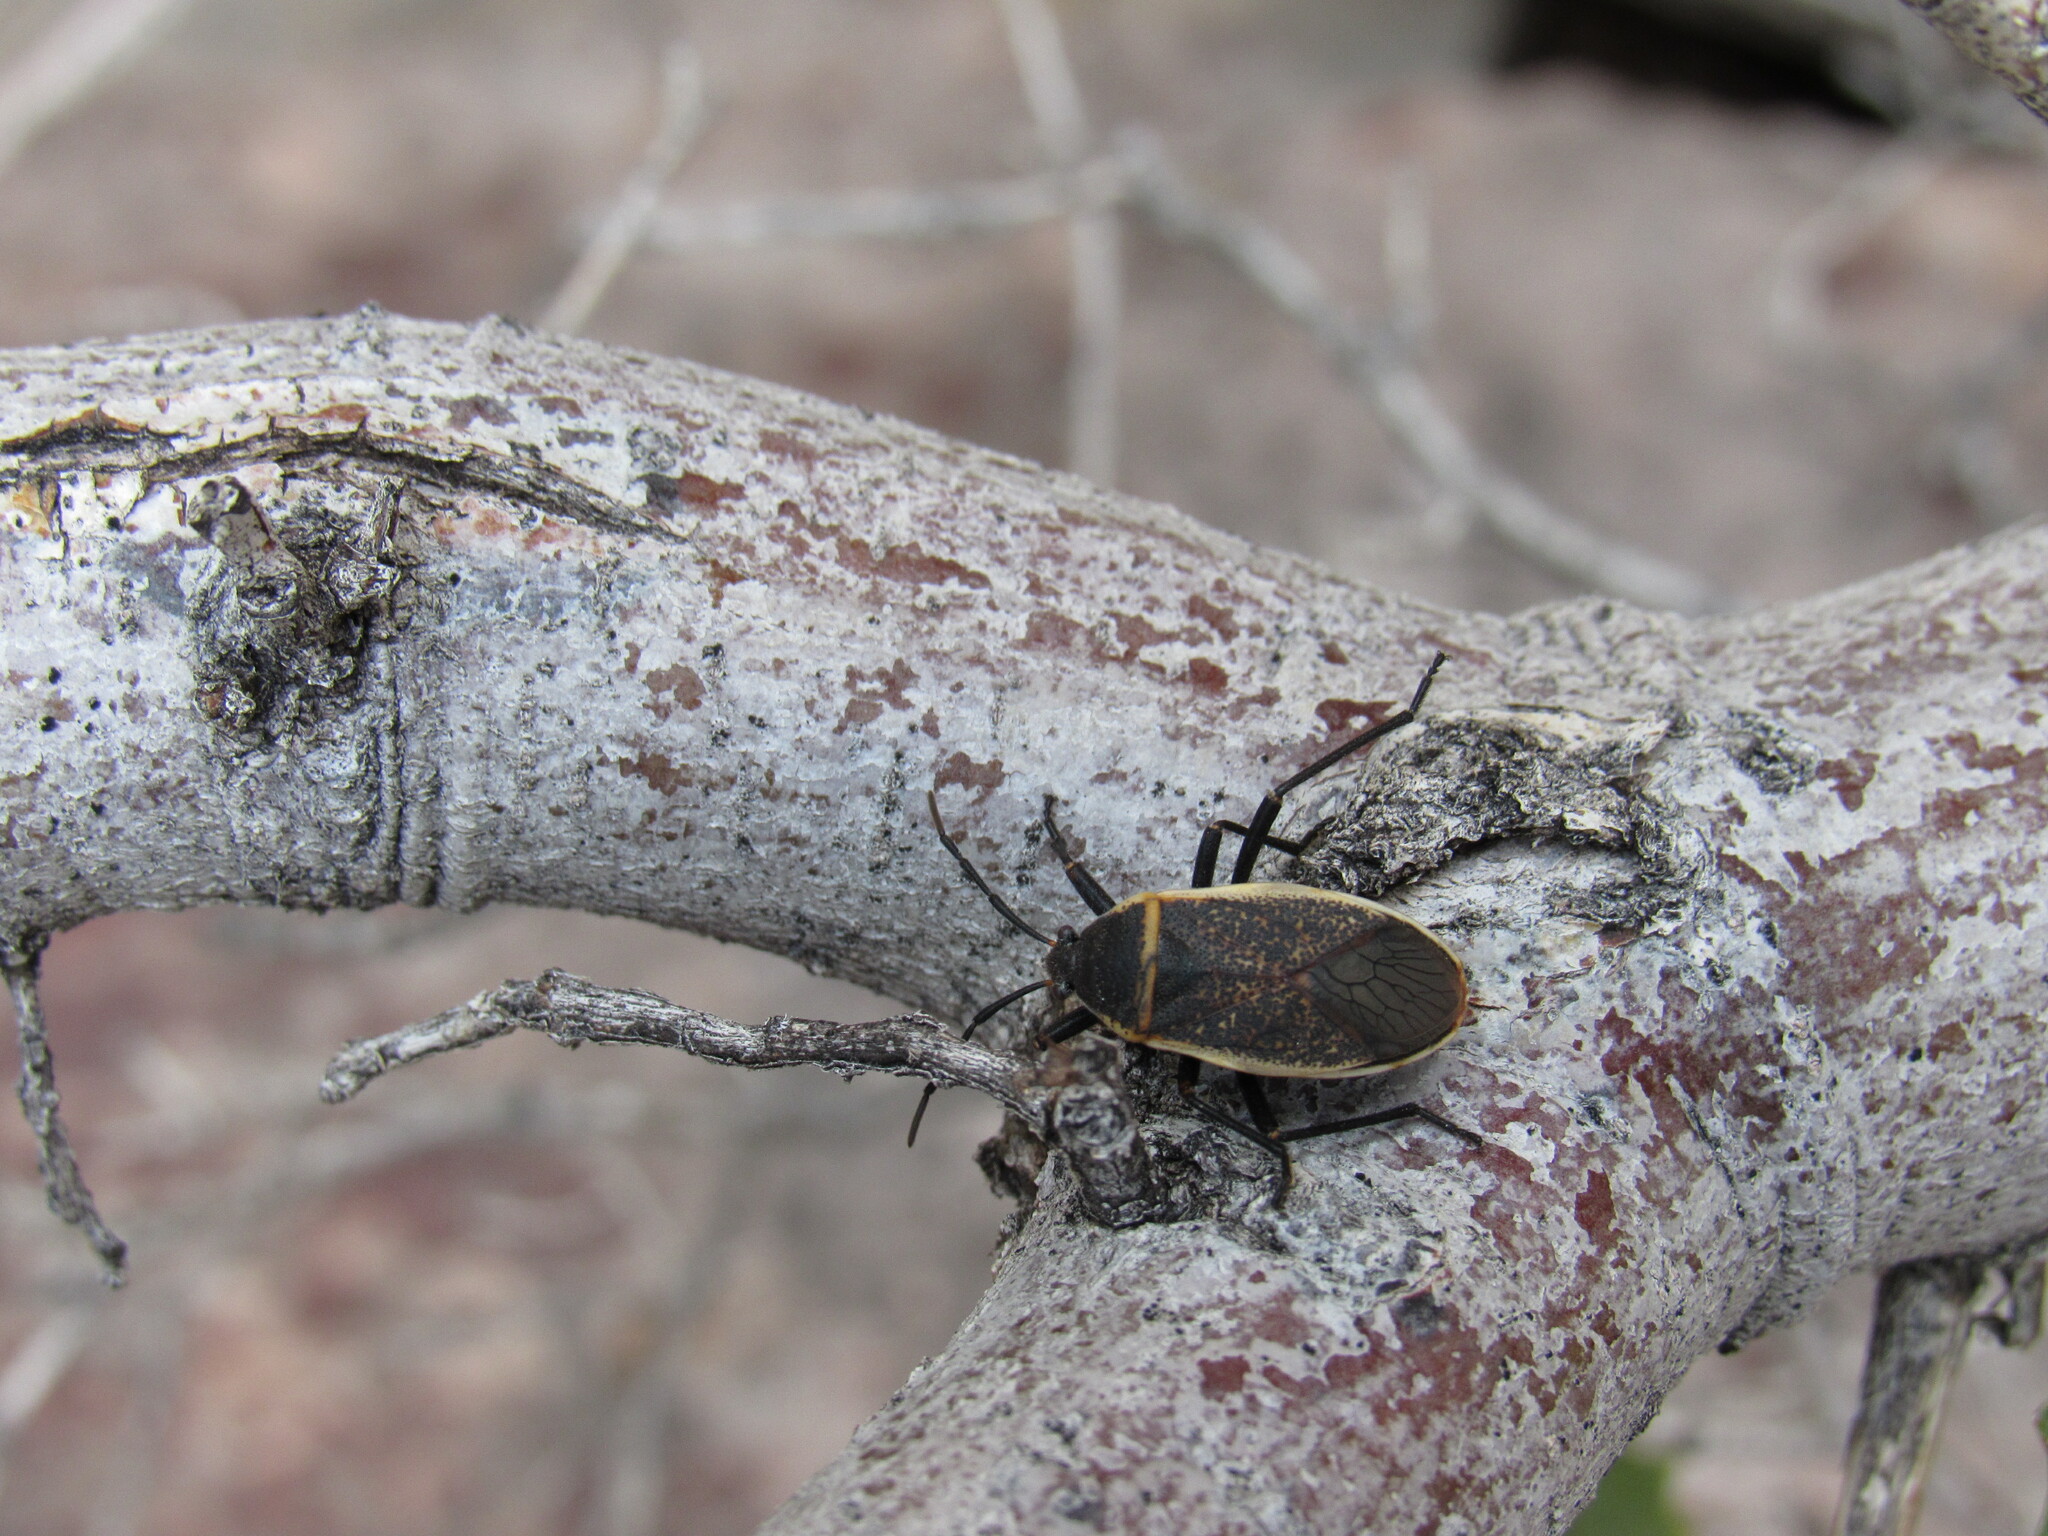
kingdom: Animalia
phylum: Arthropoda
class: Insecta
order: Hemiptera
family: Largidae
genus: Largus
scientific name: Largus californicus
